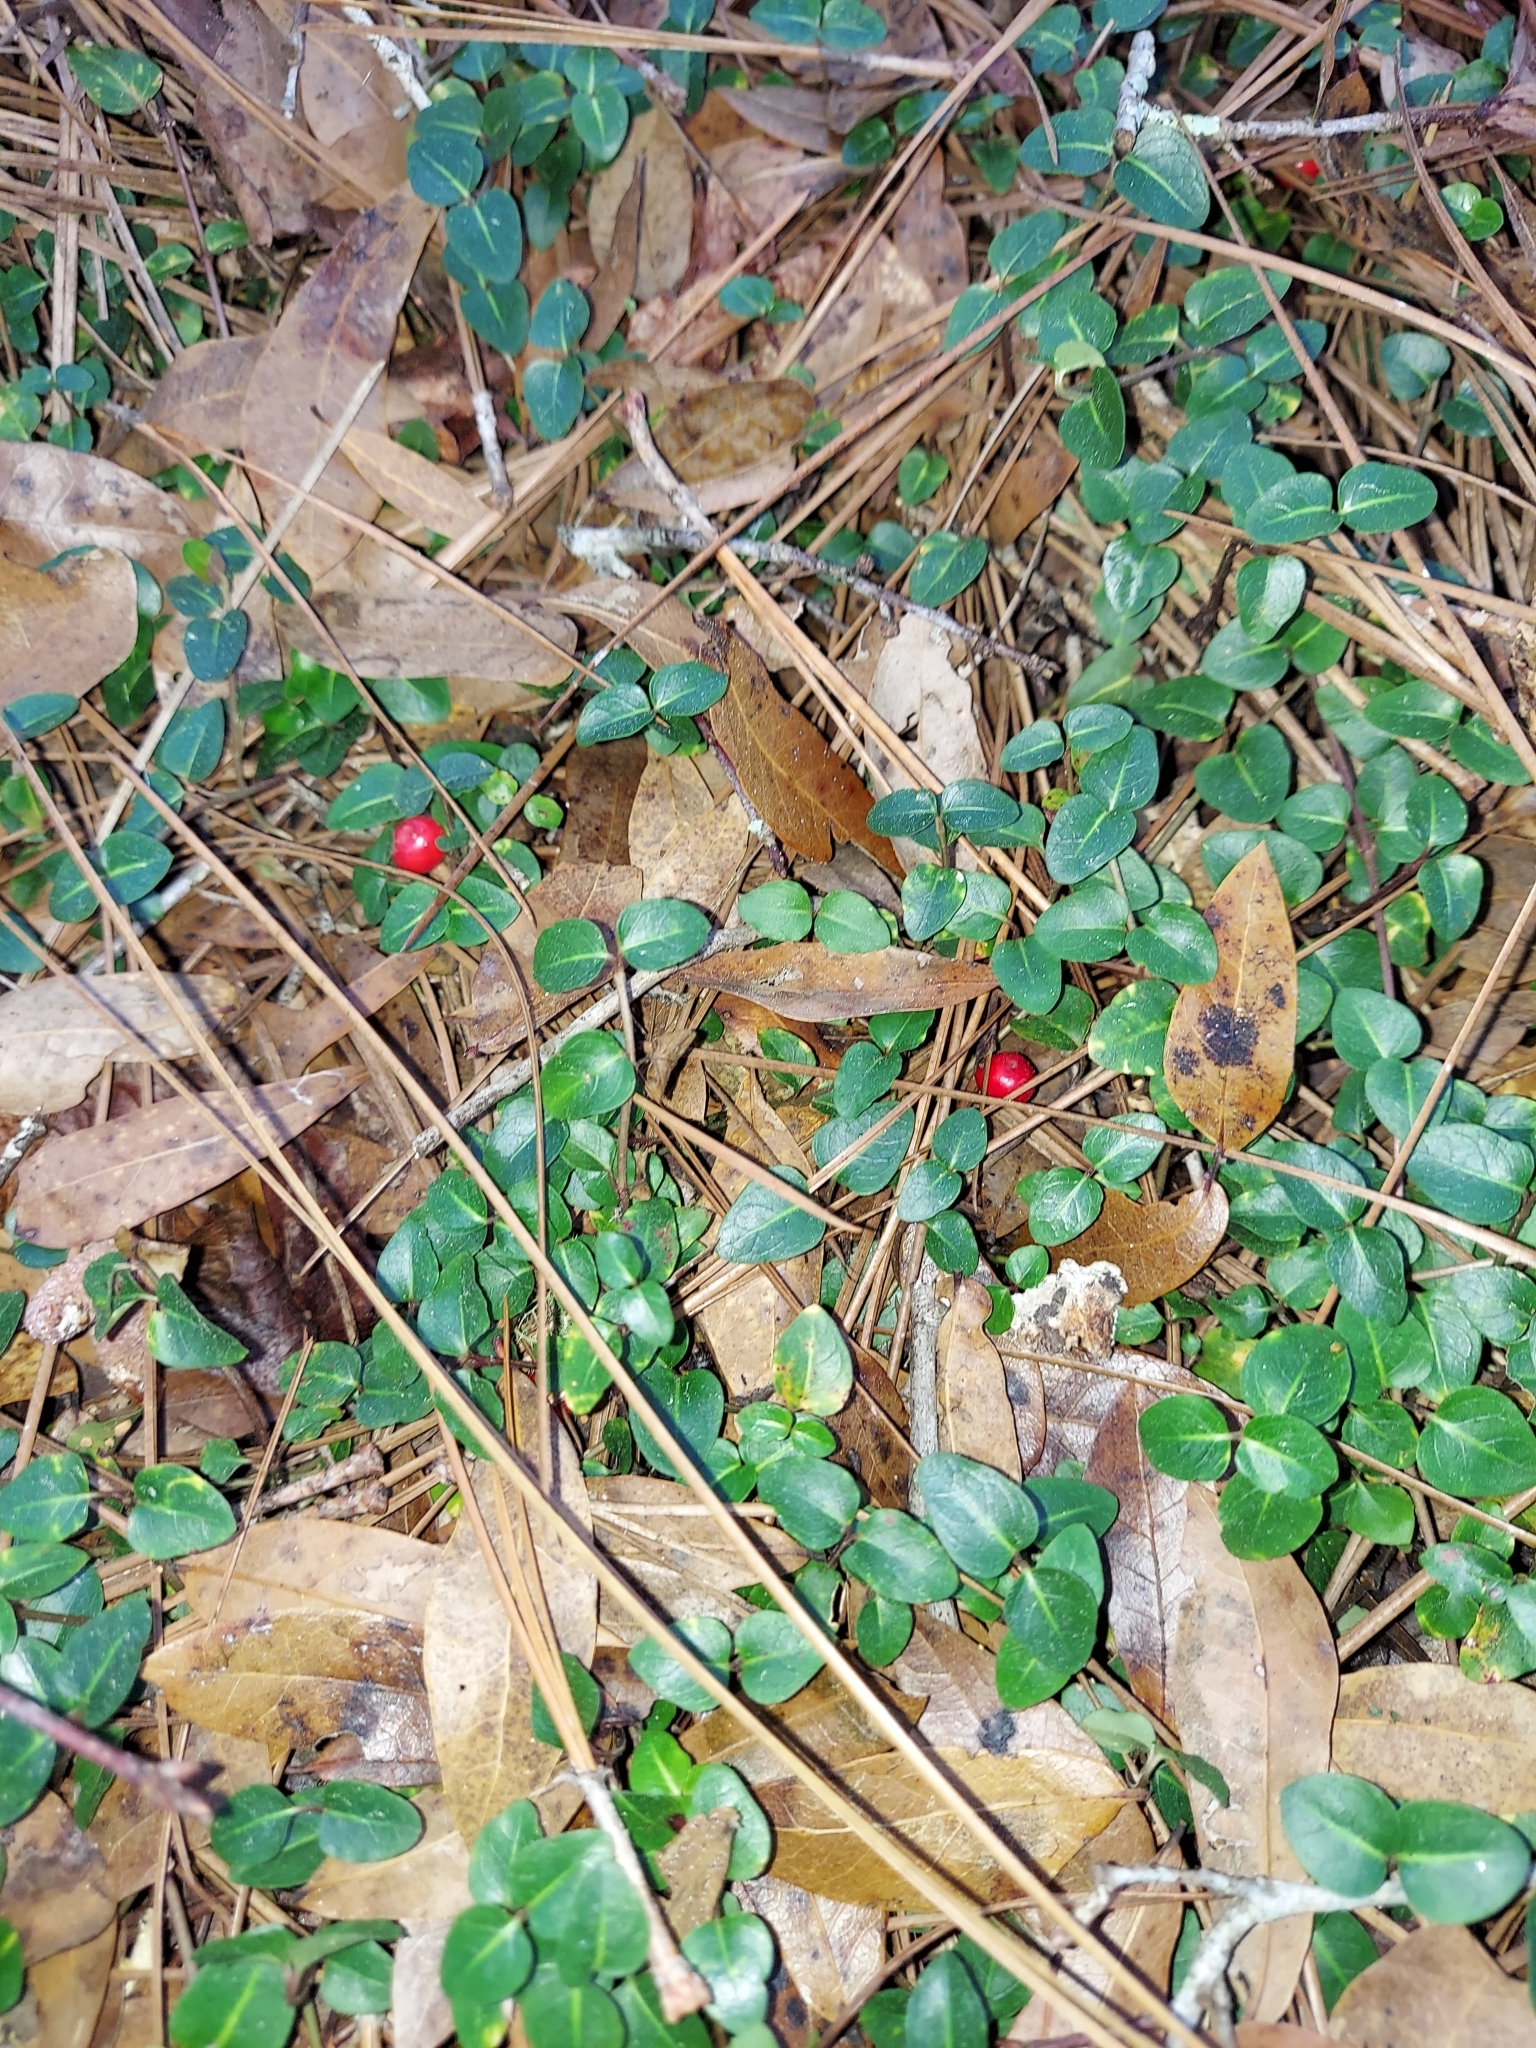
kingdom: Plantae
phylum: Tracheophyta
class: Magnoliopsida
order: Gentianales
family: Rubiaceae
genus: Mitchella
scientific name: Mitchella repens
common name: Partridge-berry
